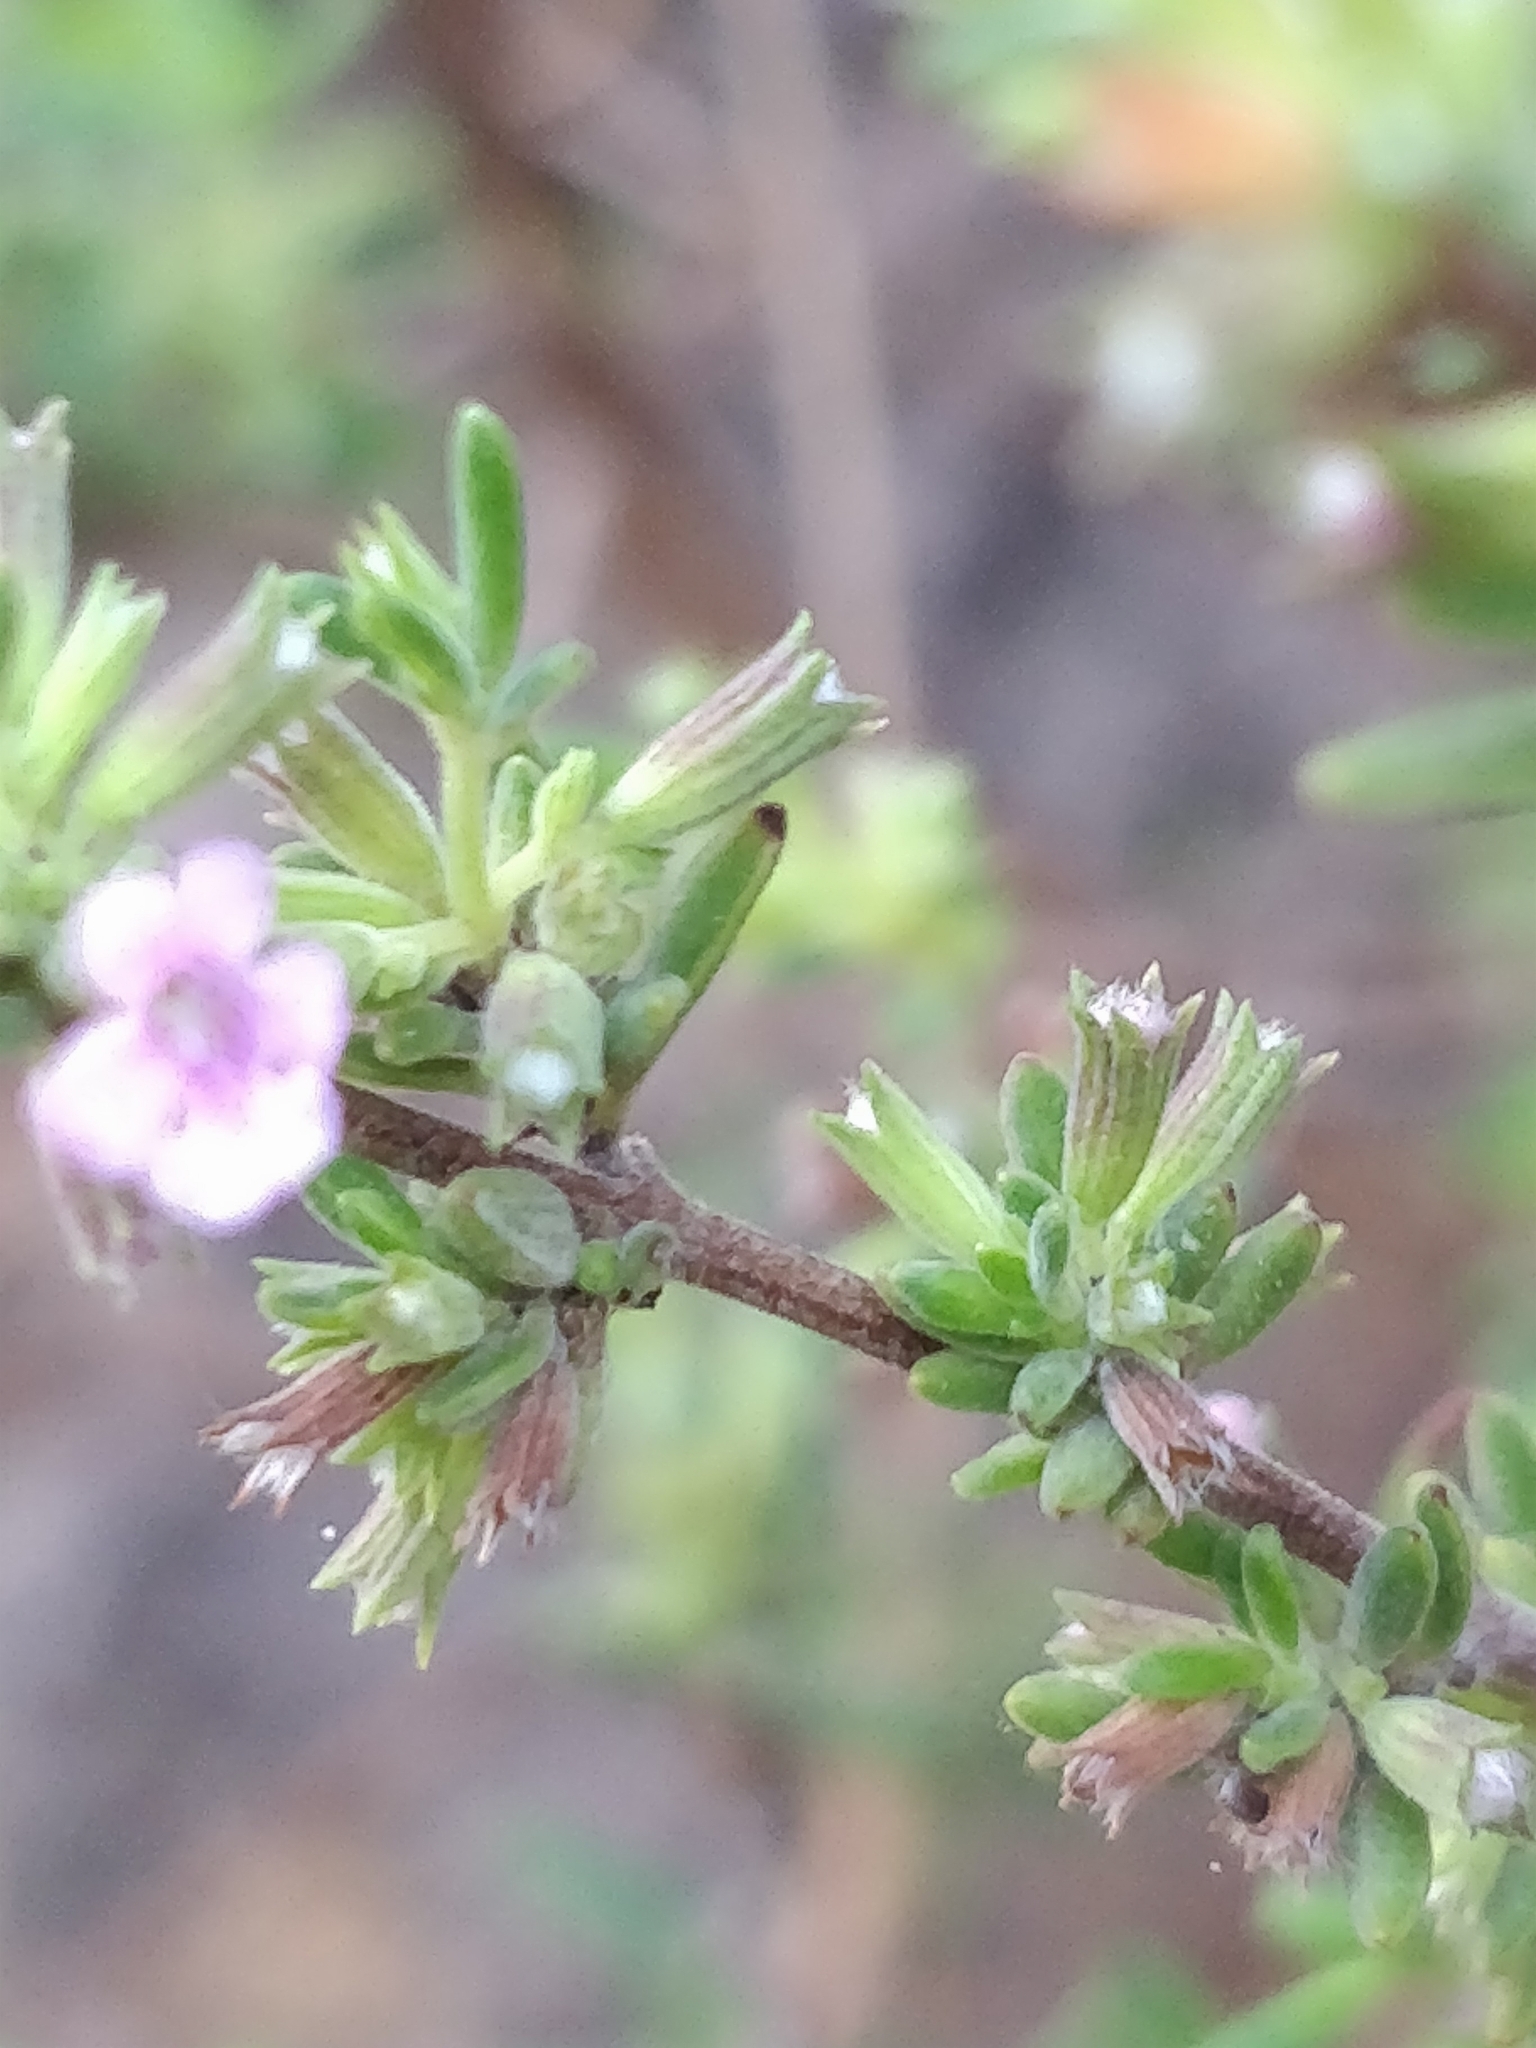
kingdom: Plantae
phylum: Tracheophyta
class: Magnoliopsida
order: Lamiales
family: Lamiaceae
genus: Micromeria
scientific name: Micromeria maderensis
